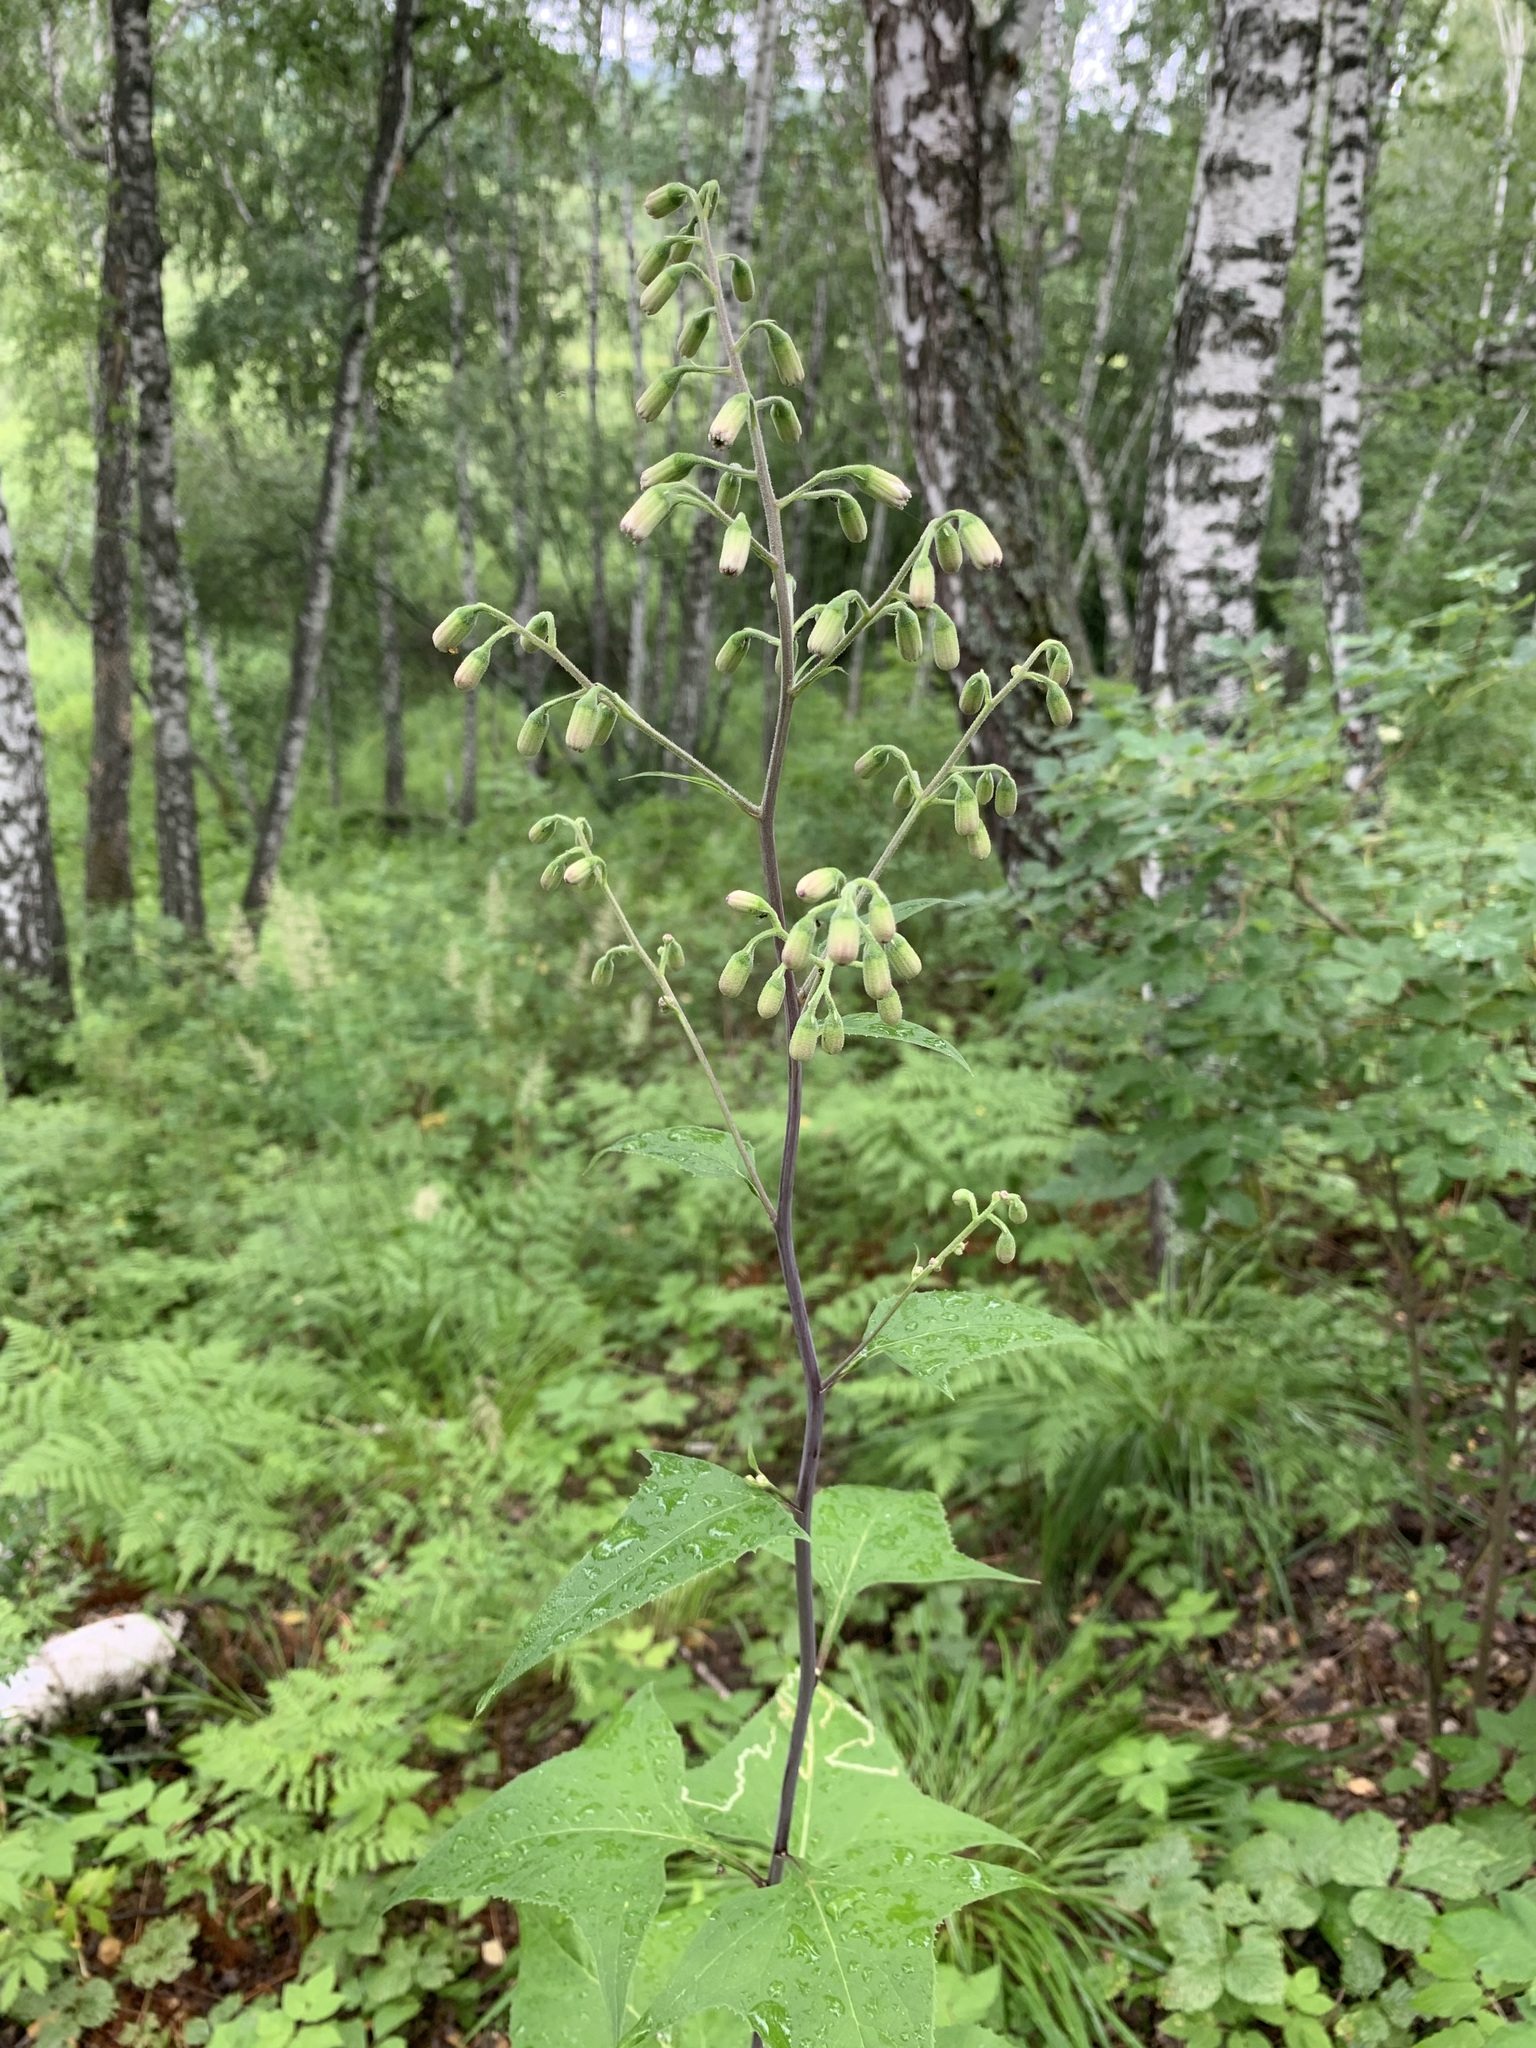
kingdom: Plantae
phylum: Tracheophyta
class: Magnoliopsida
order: Asterales
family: Asteraceae
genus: Parasenecio
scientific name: Parasenecio hastatus
